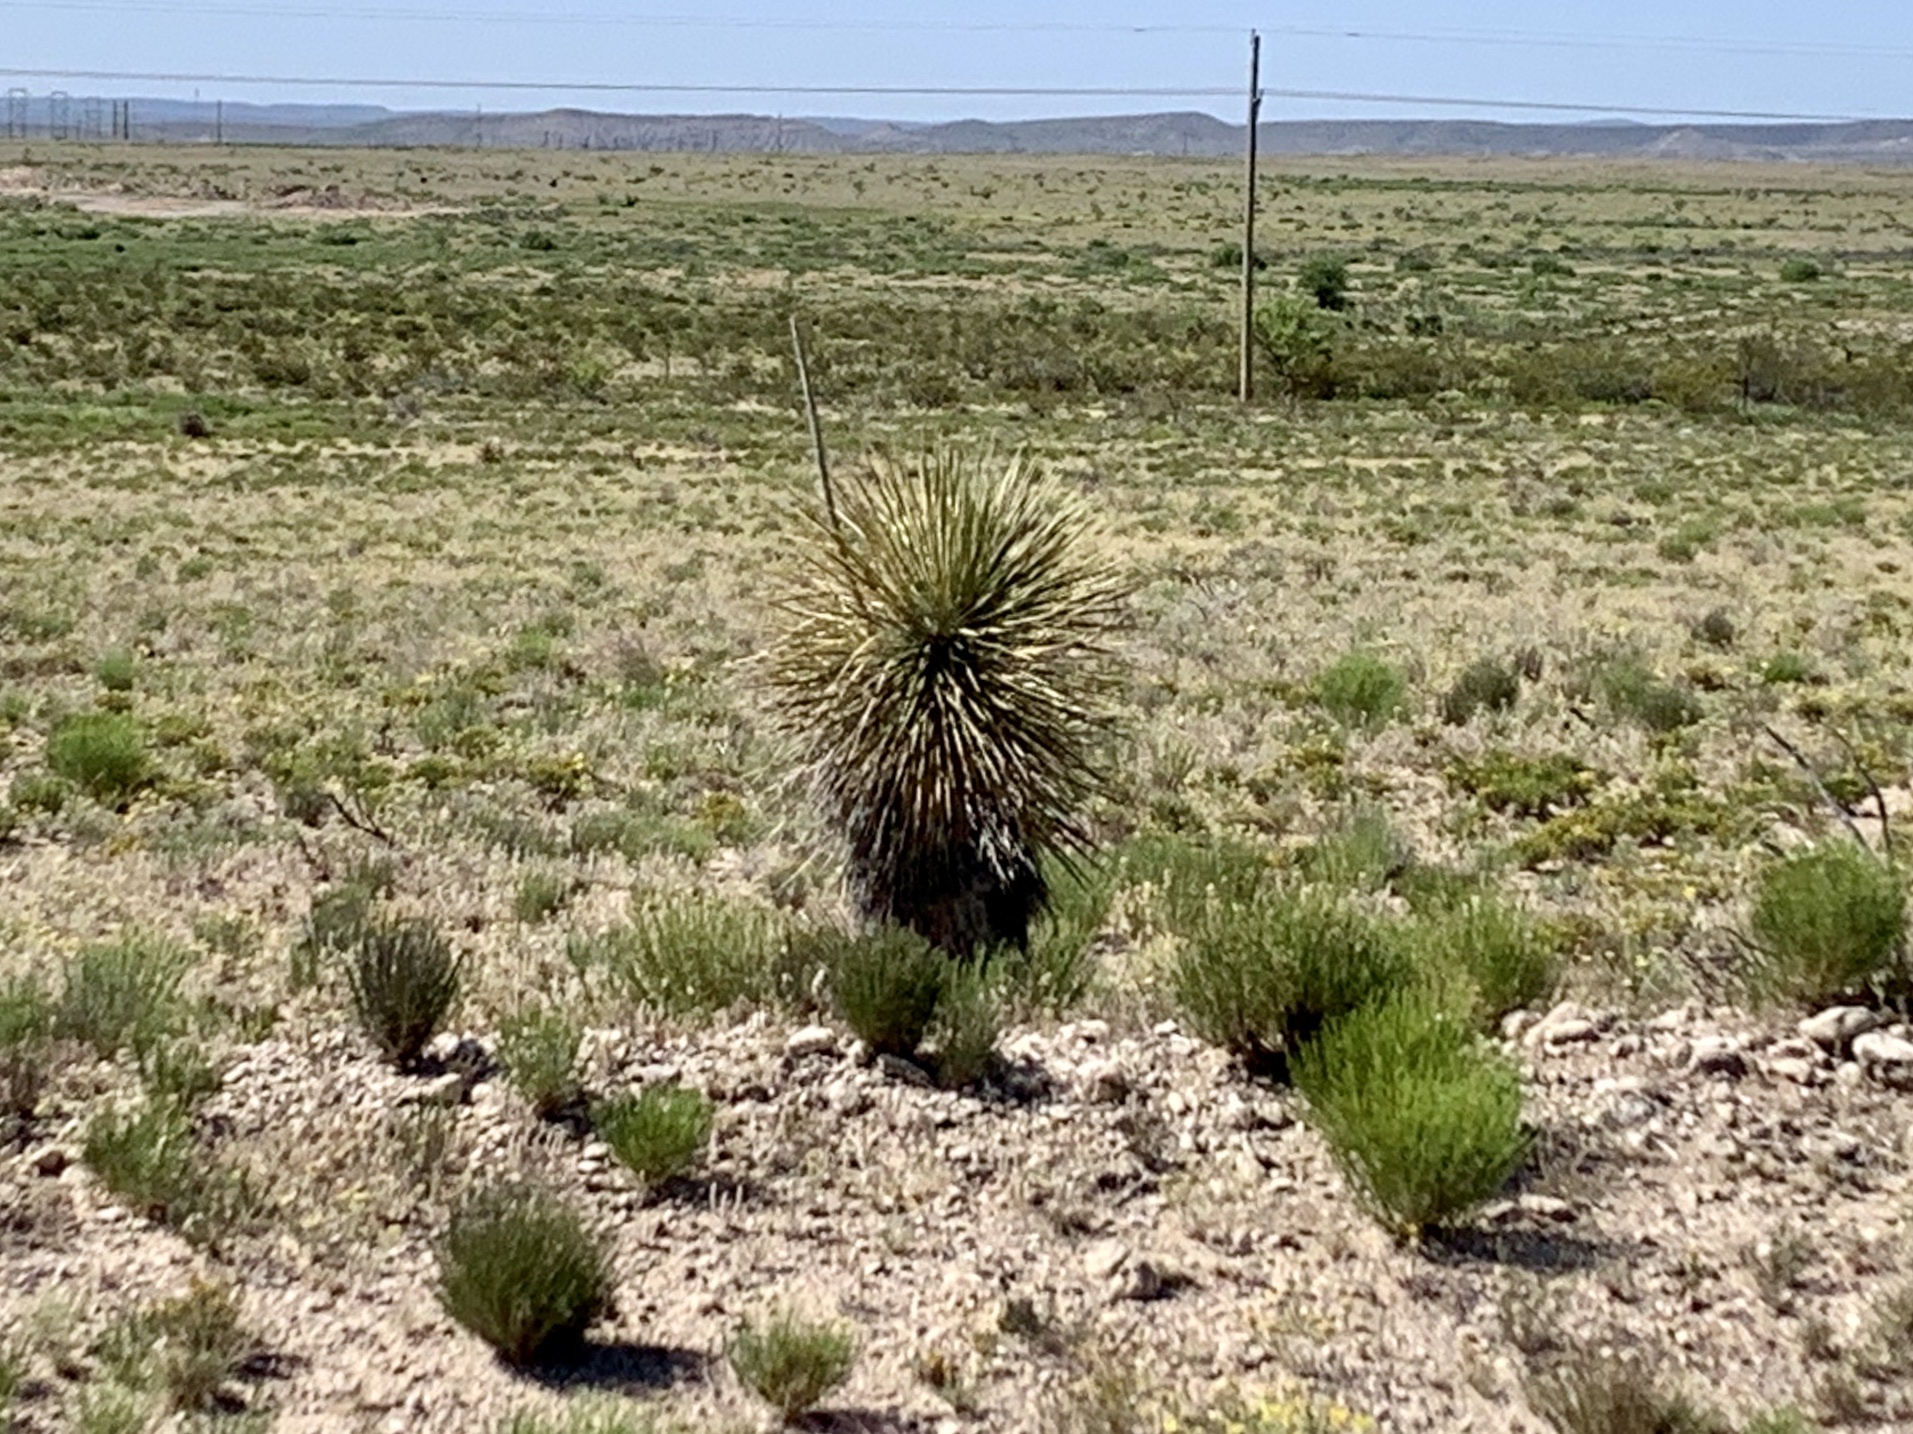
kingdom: Plantae
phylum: Tracheophyta
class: Liliopsida
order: Asparagales
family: Asparagaceae
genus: Yucca
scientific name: Yucca elata
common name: Palmella
